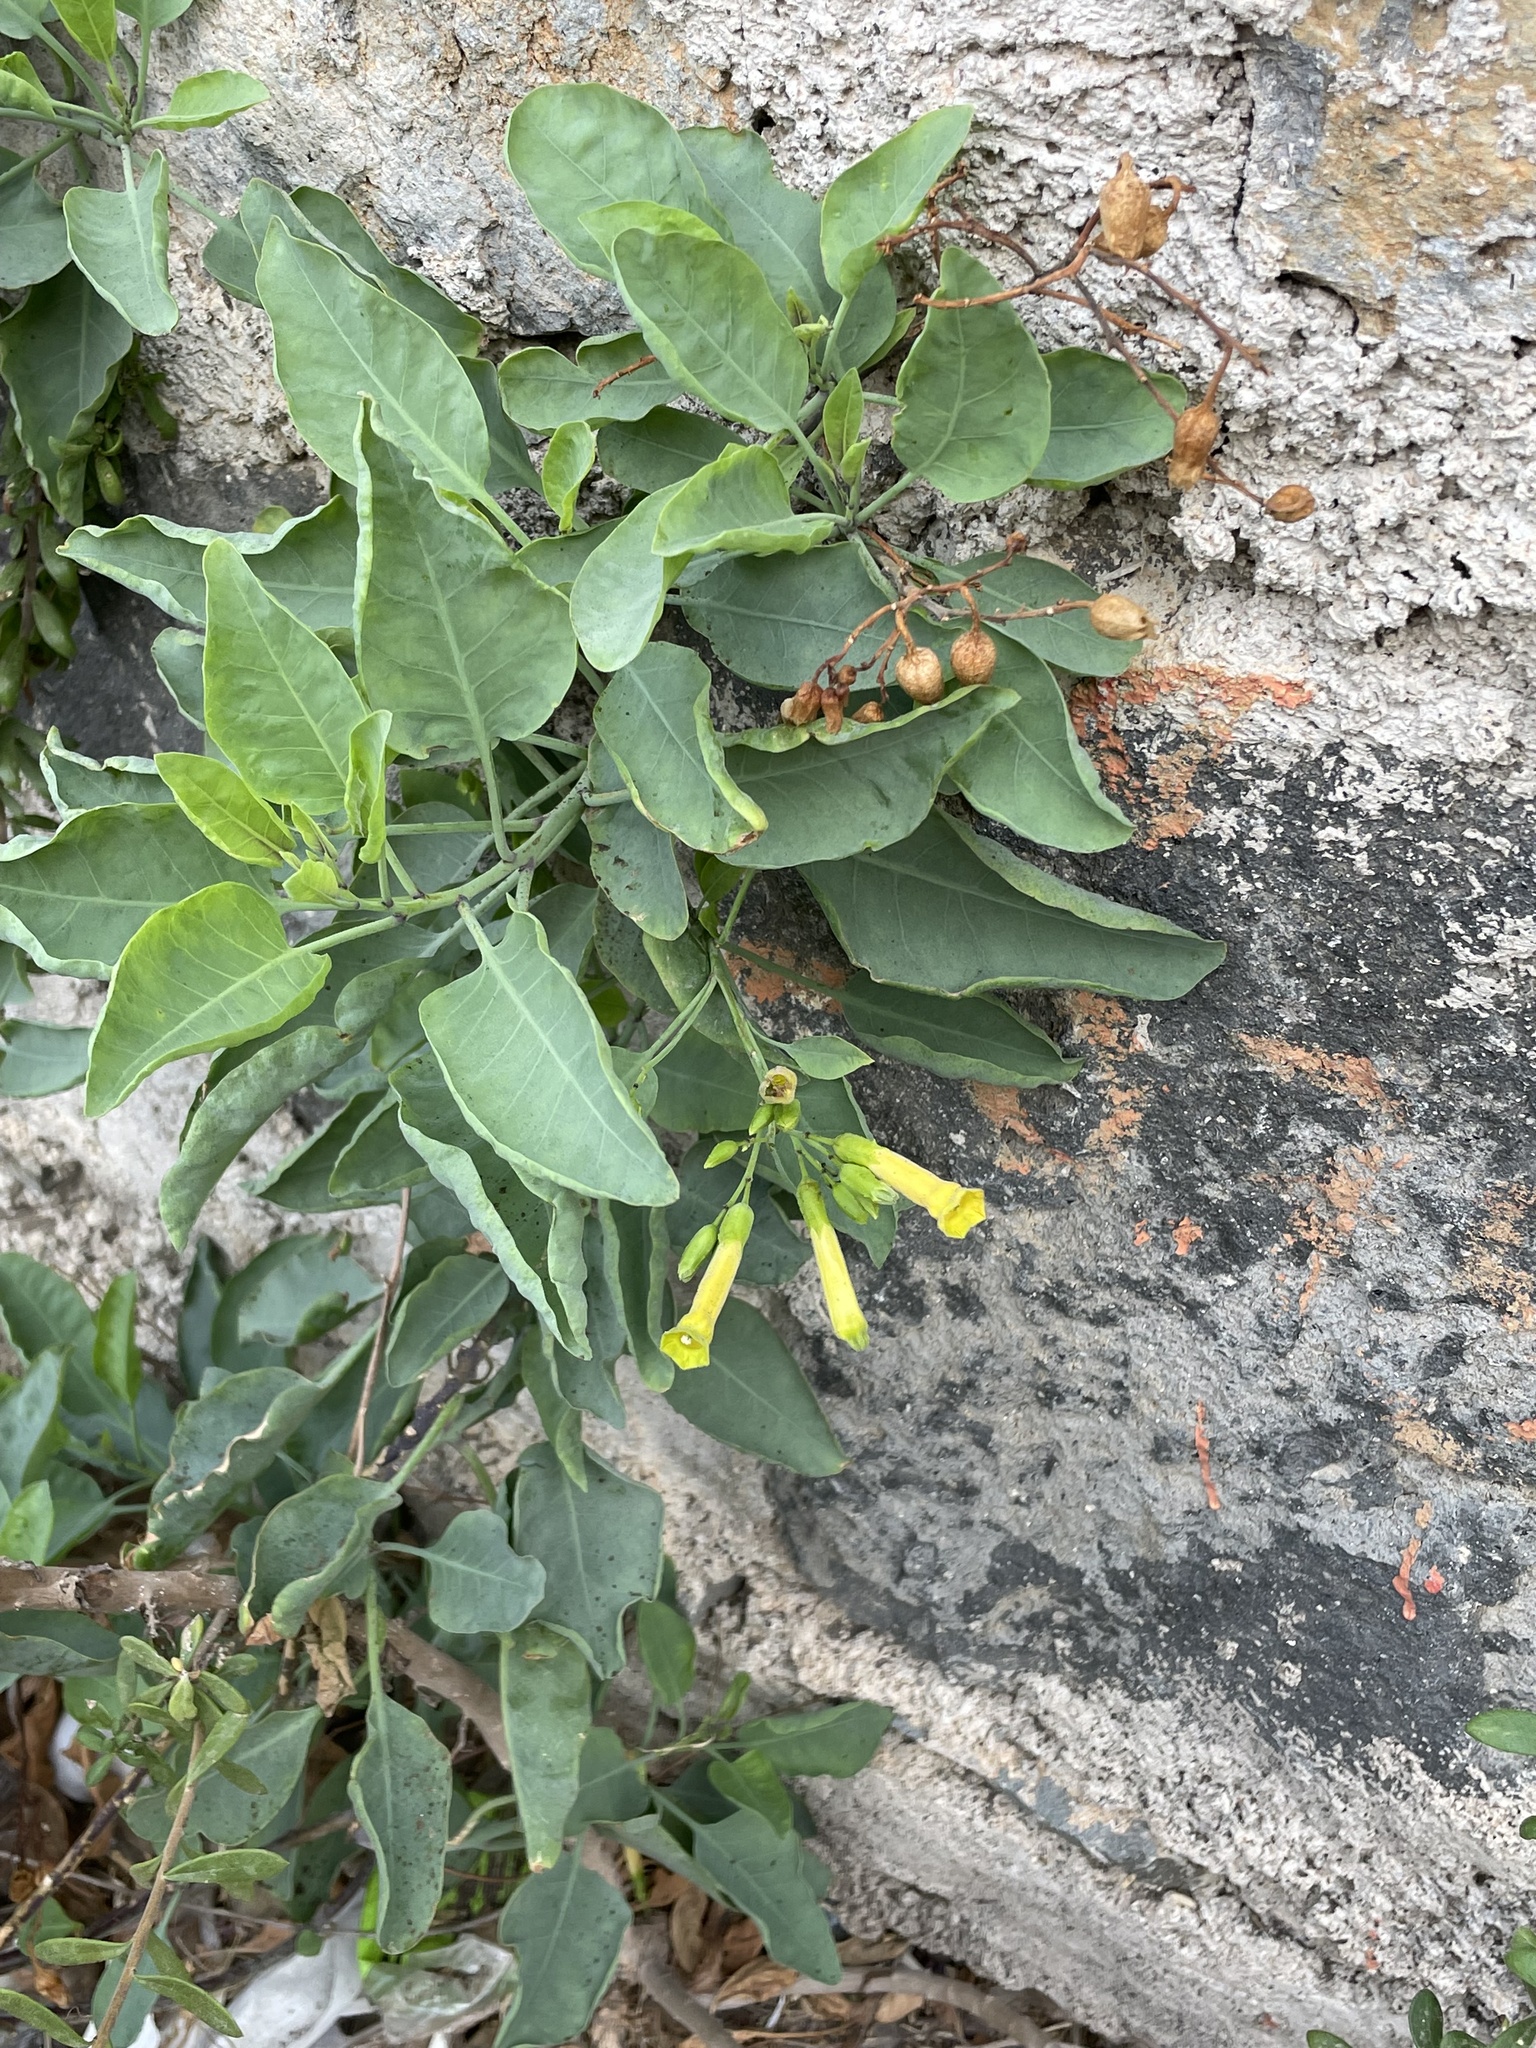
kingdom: Plantae
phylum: Tracheophyta
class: Magnoliopsida
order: Solanales
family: Solanaceae
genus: Nicotiana
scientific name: Nicotiana glauca
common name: Tree tobacco
